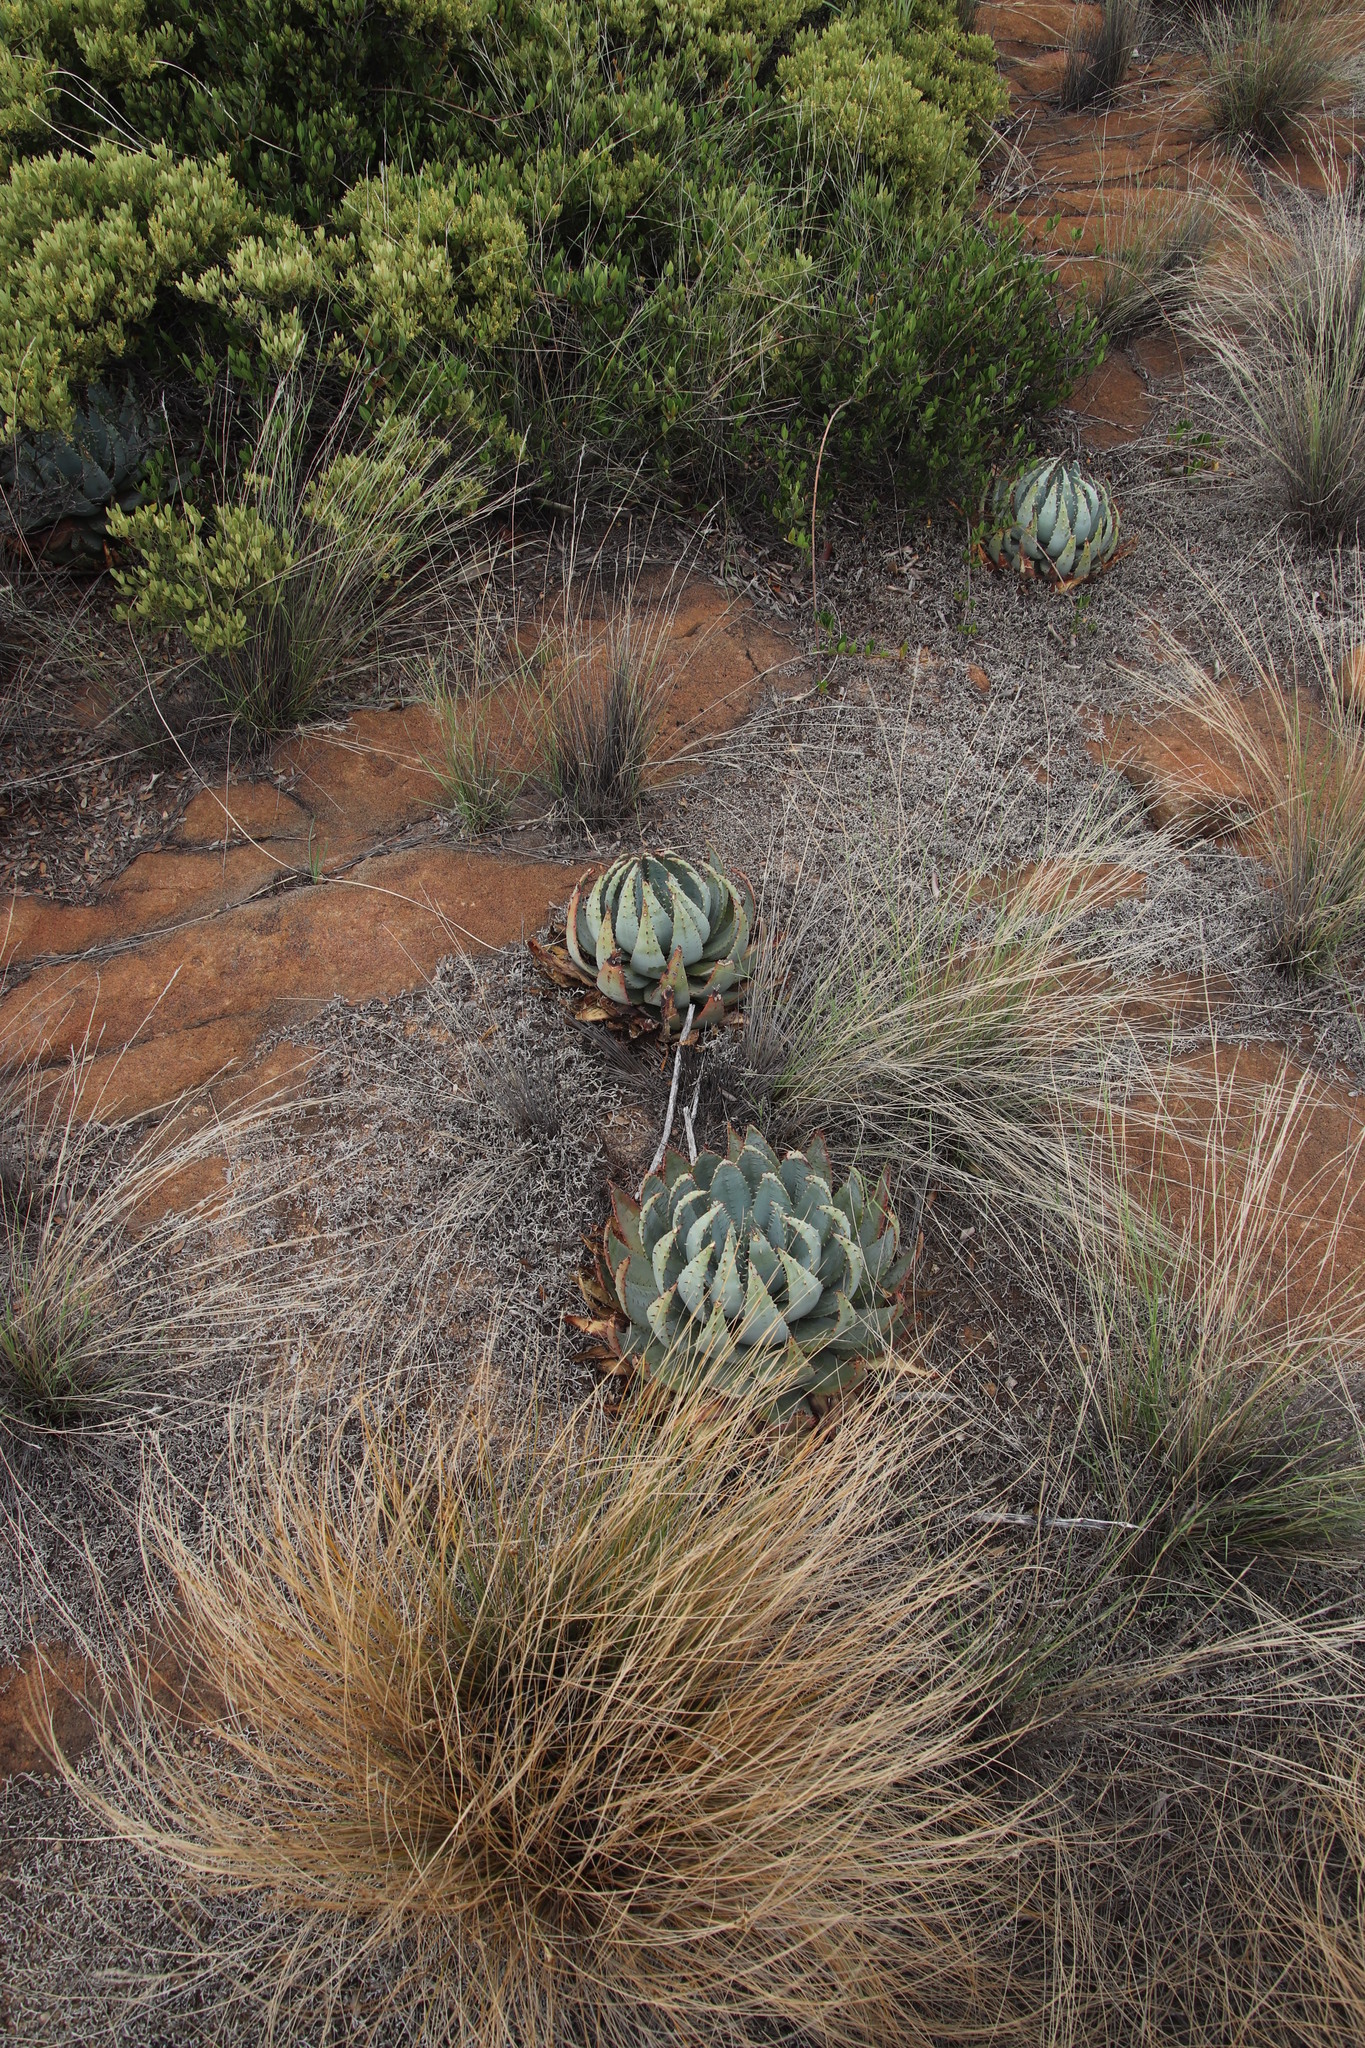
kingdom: Plantae
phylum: Tracheophyta
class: Liliopsida
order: Asparagales
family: Asphodelaceae
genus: Aloe
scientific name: Aloe peglerae
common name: Red-hot poker
